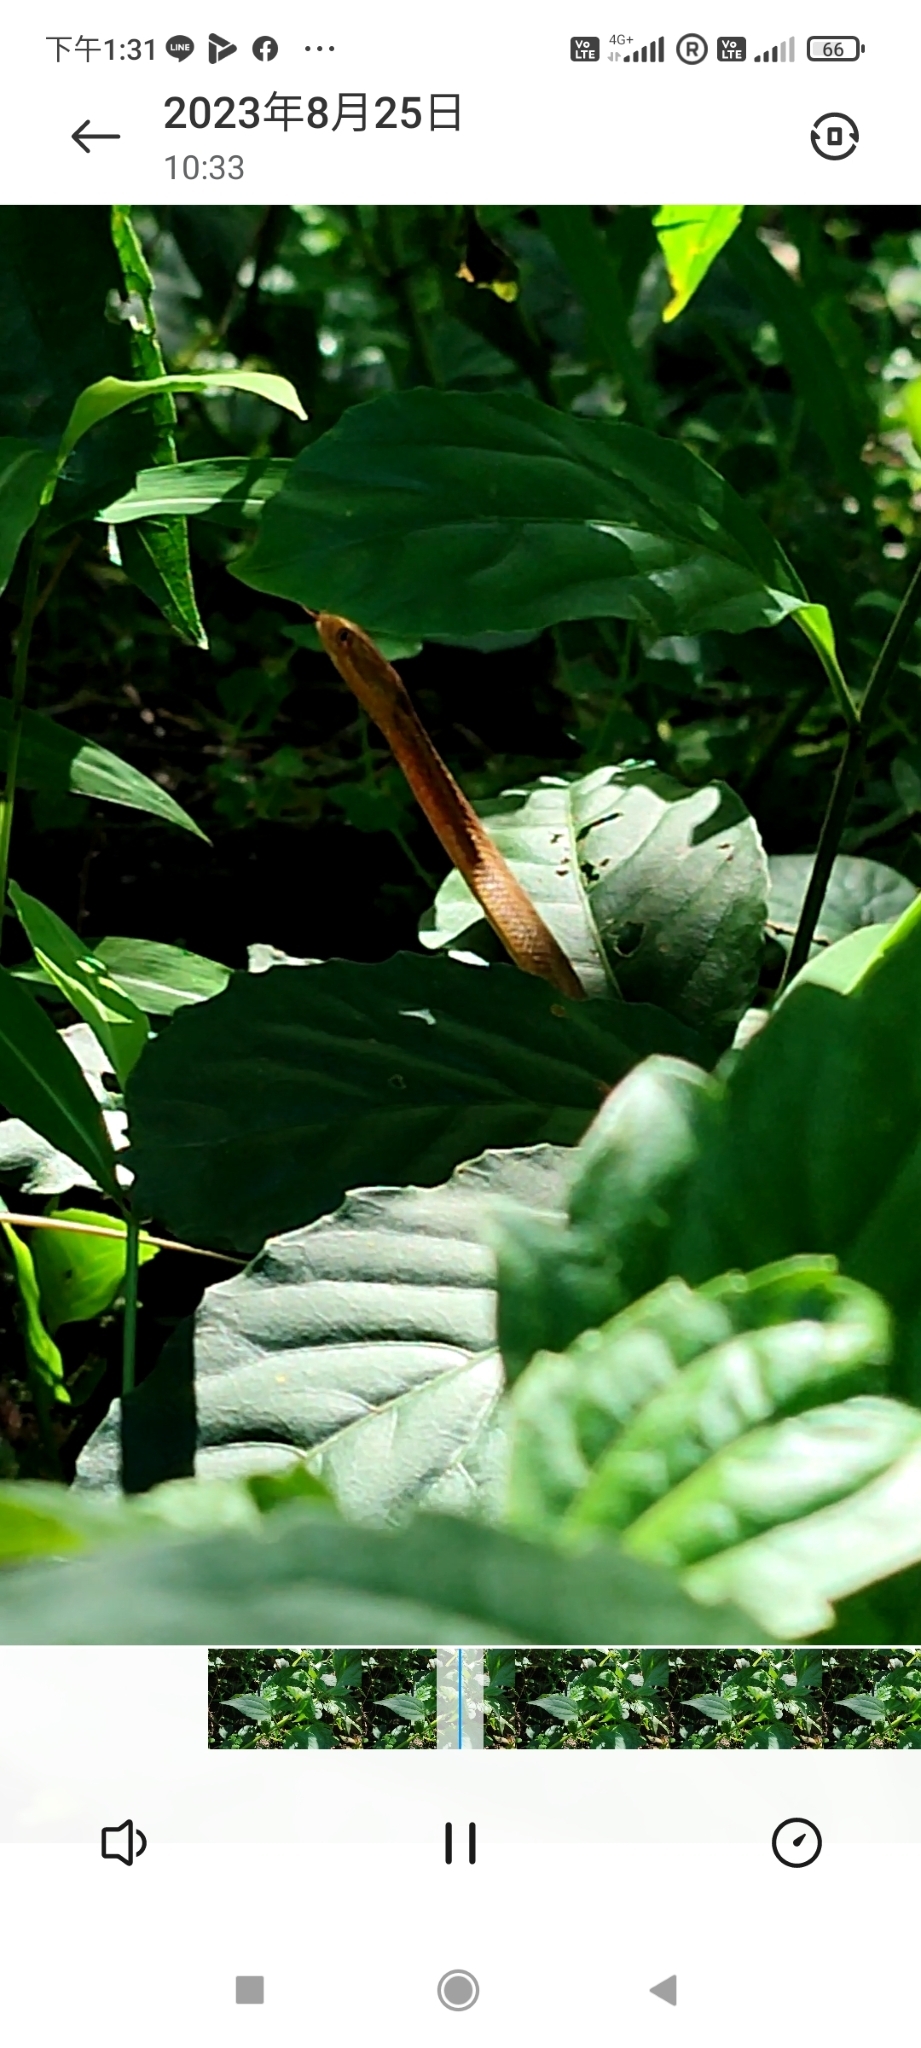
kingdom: Animalia
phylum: Chordata
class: Squamata
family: Pseudaspididae
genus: Psammodynastes
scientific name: Psammodynastes pulverulentus
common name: Common mock viper
